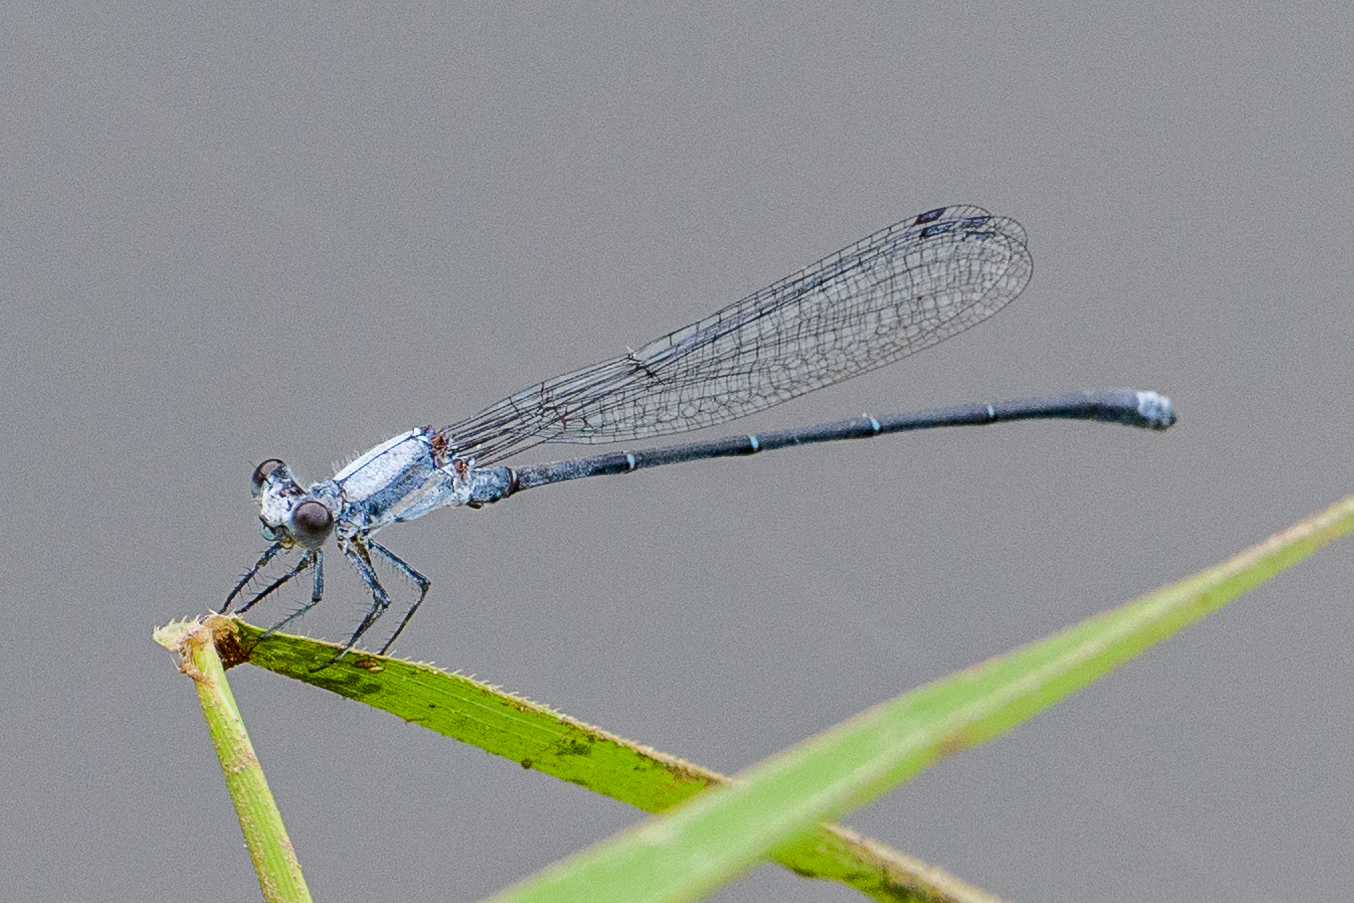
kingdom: Animalia
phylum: Arthropoda
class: Insecta
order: Odonata
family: Coenagrionidae
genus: Argia
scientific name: Argia moesta
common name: Powdered dancer
